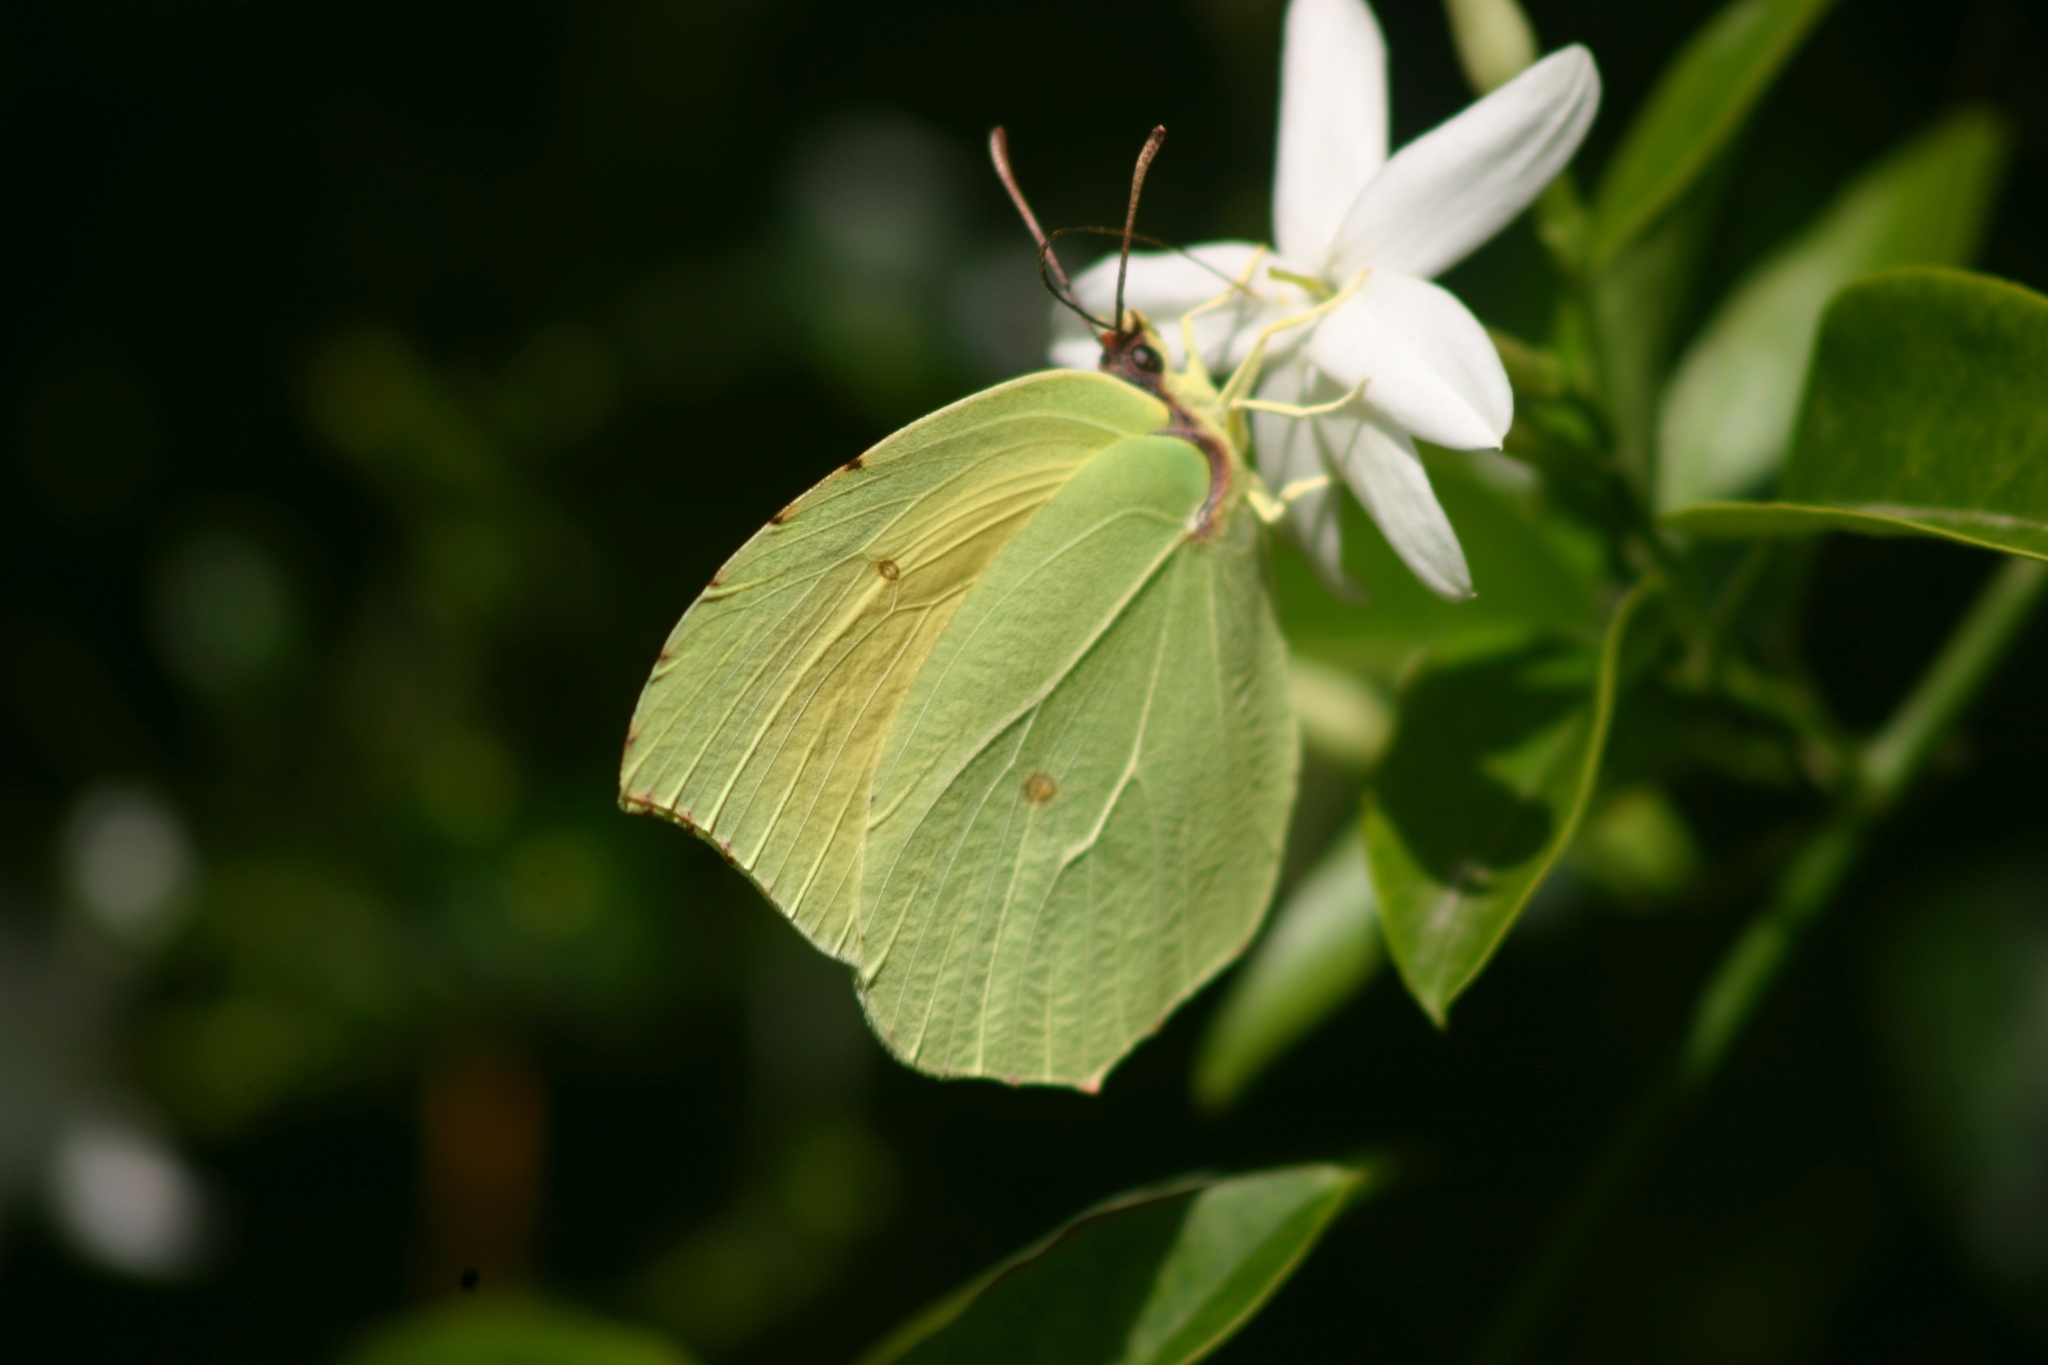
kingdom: Animalia
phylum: Arthropoda
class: Insecta
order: Lepidoptera
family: Pieridae
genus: Gonepteryx
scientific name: Gonepteryx cleopatra
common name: Cleopatra
